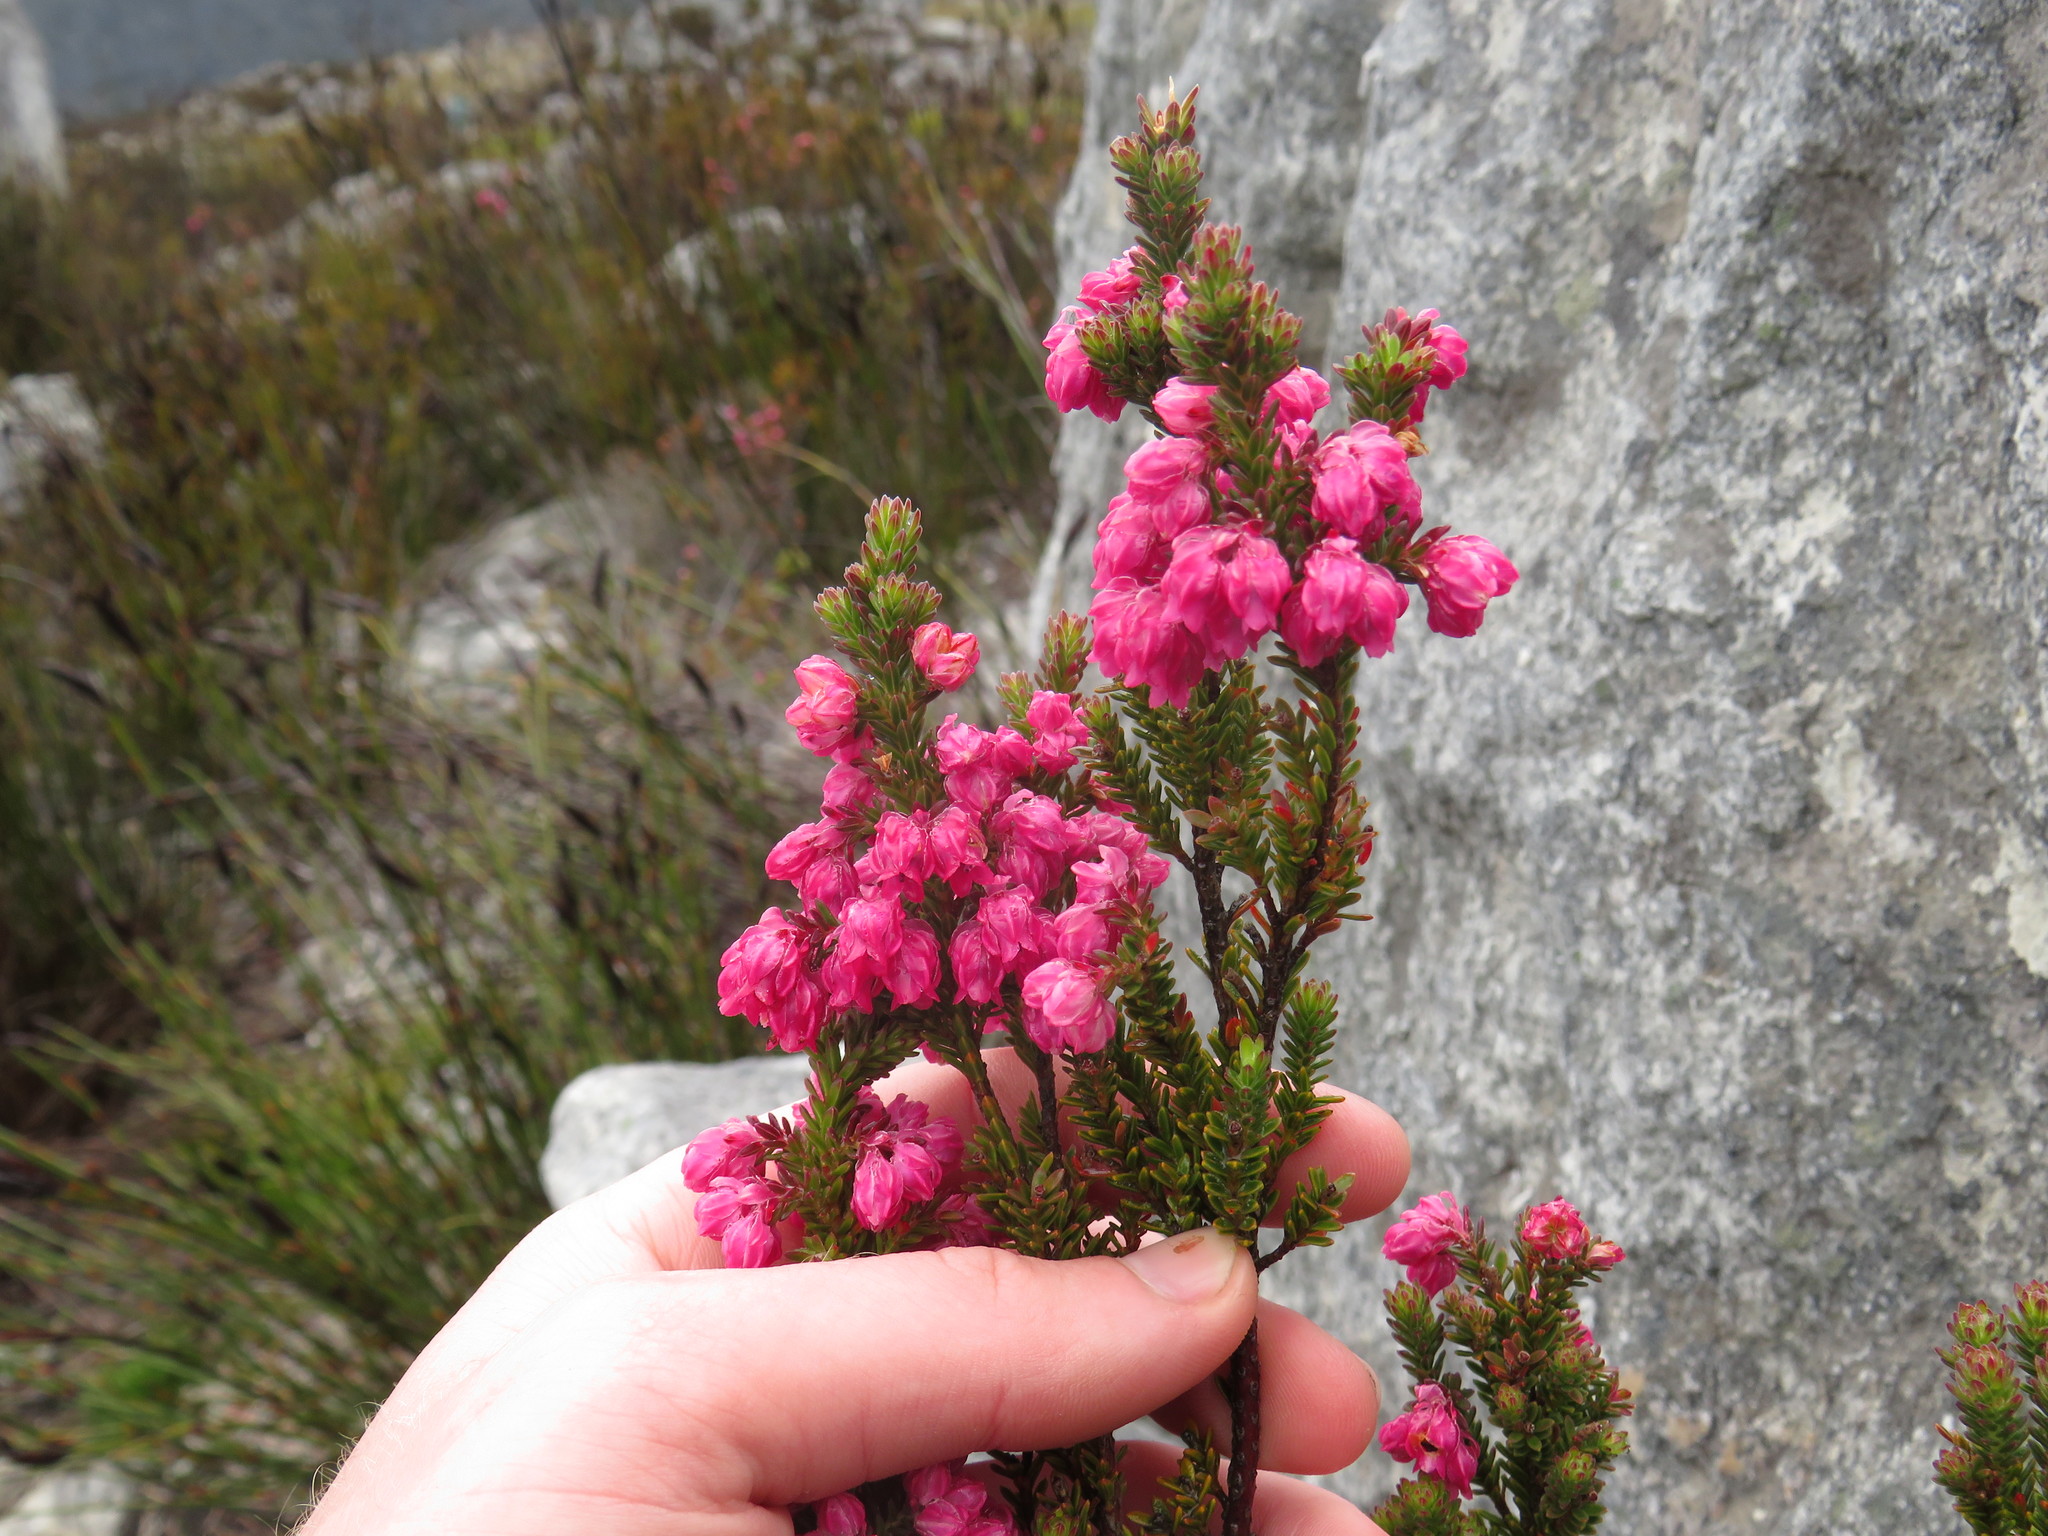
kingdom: Plantae
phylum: Tracheophyta
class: Magnoliopsida
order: Ericales
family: Ericaceae
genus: Erica
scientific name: Erica tegulifolia
